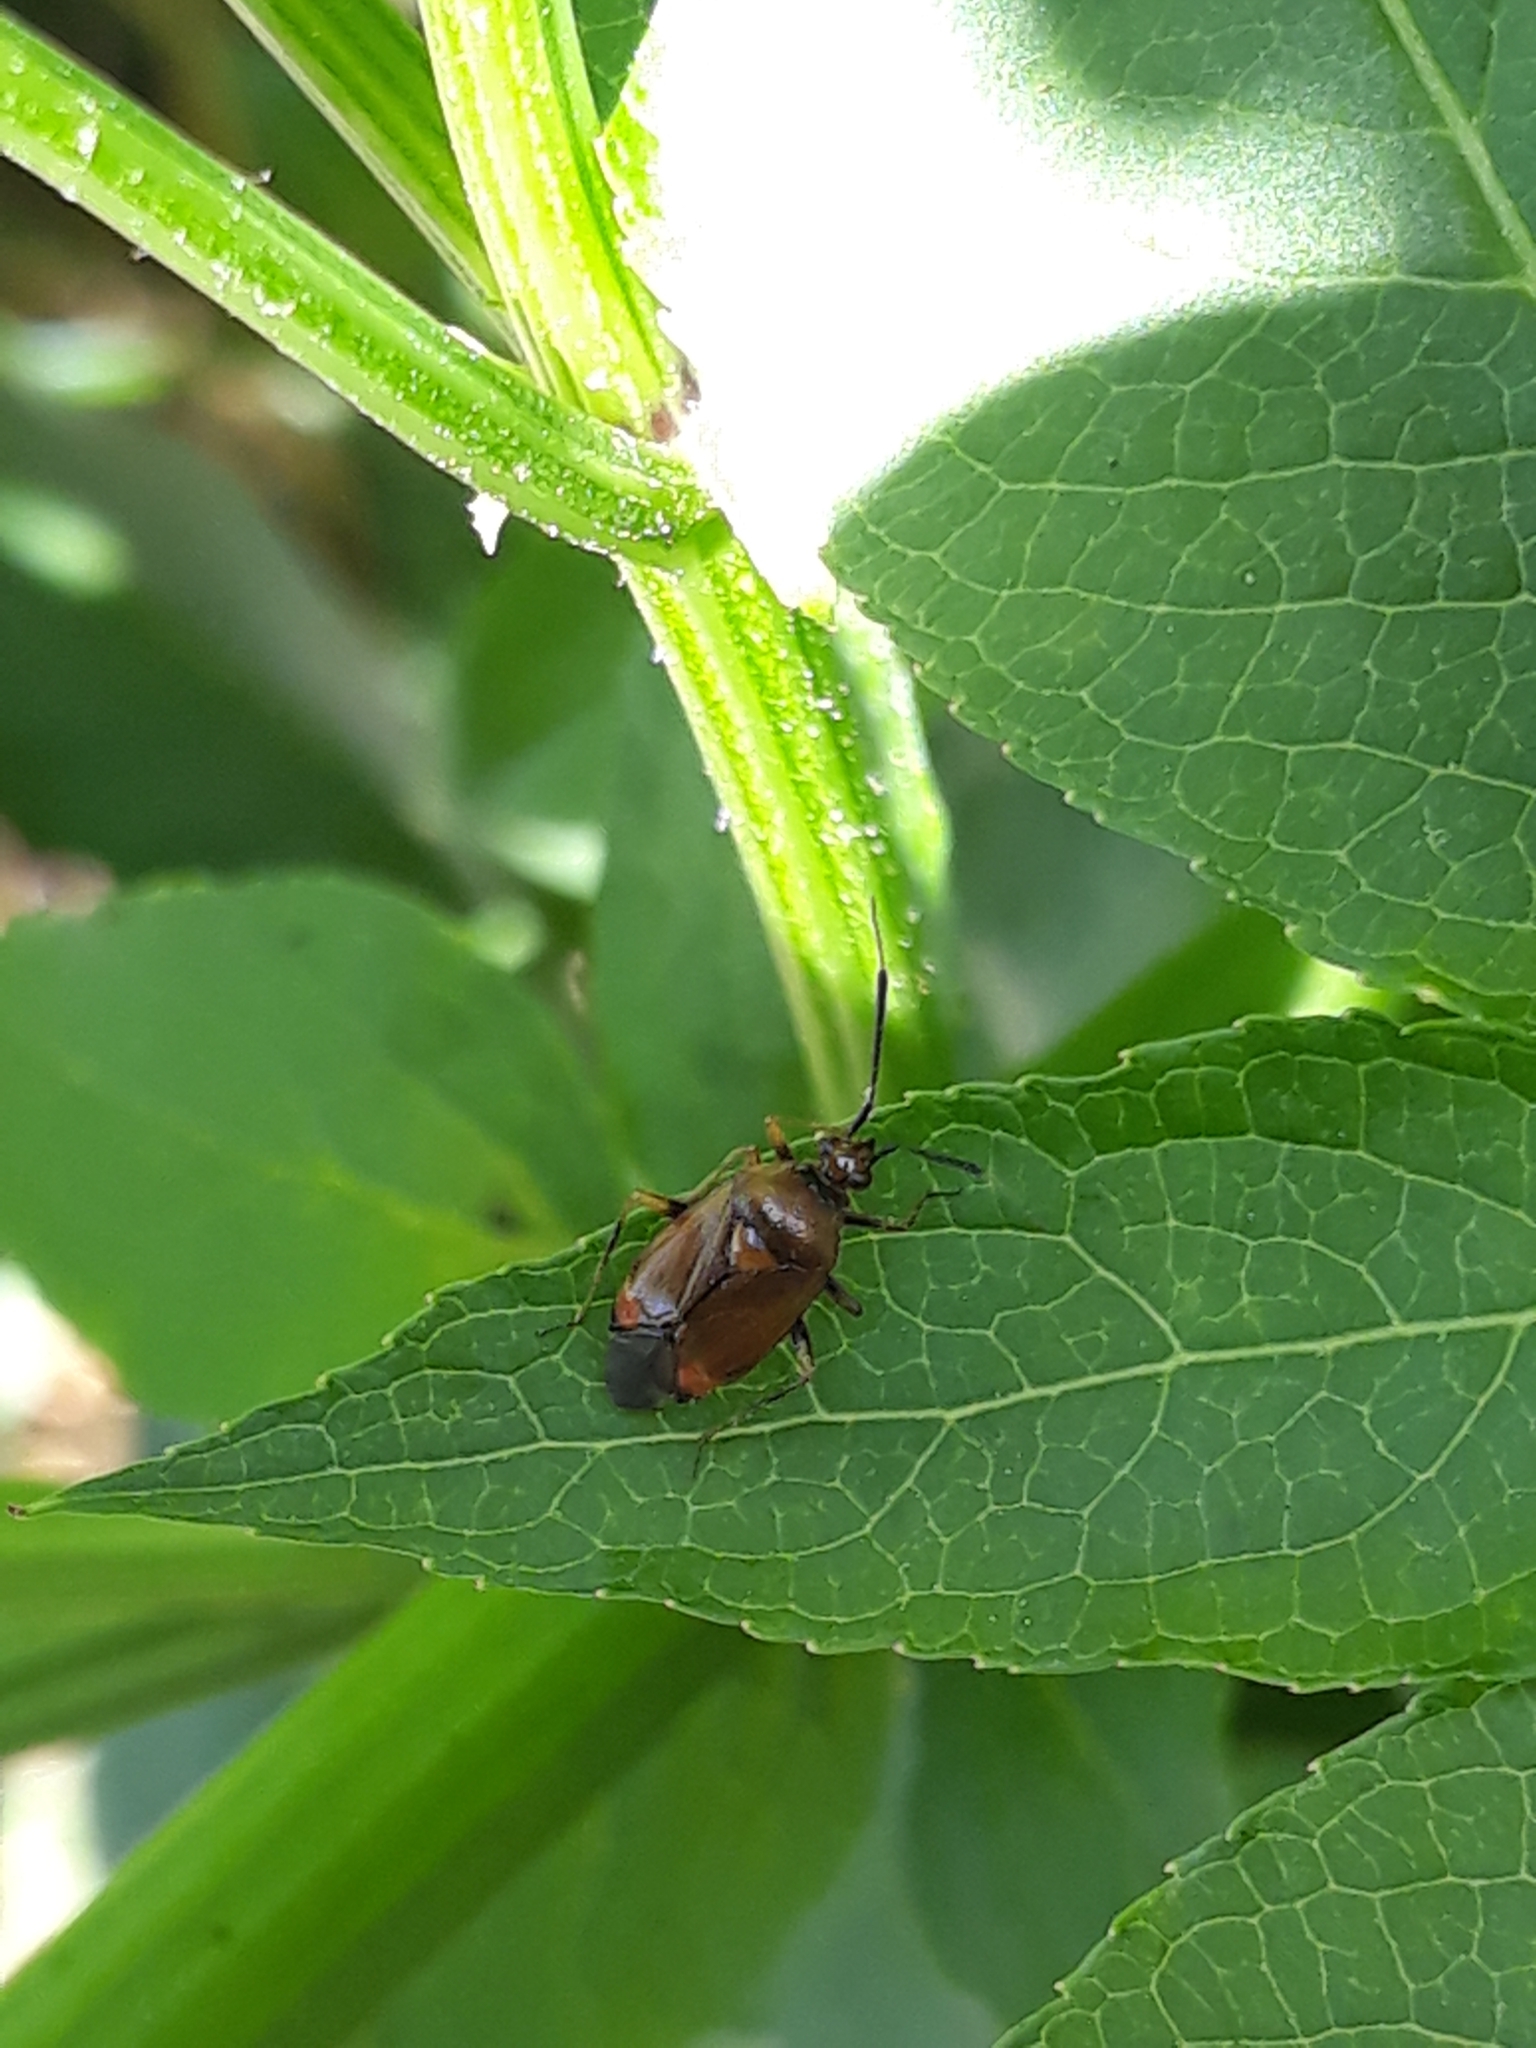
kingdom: Animalia
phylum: Arthropoda
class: Insecta
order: Hemiptera
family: Miridae
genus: Deraeocoris
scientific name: Deraeocoris ruber
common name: Plant bug
